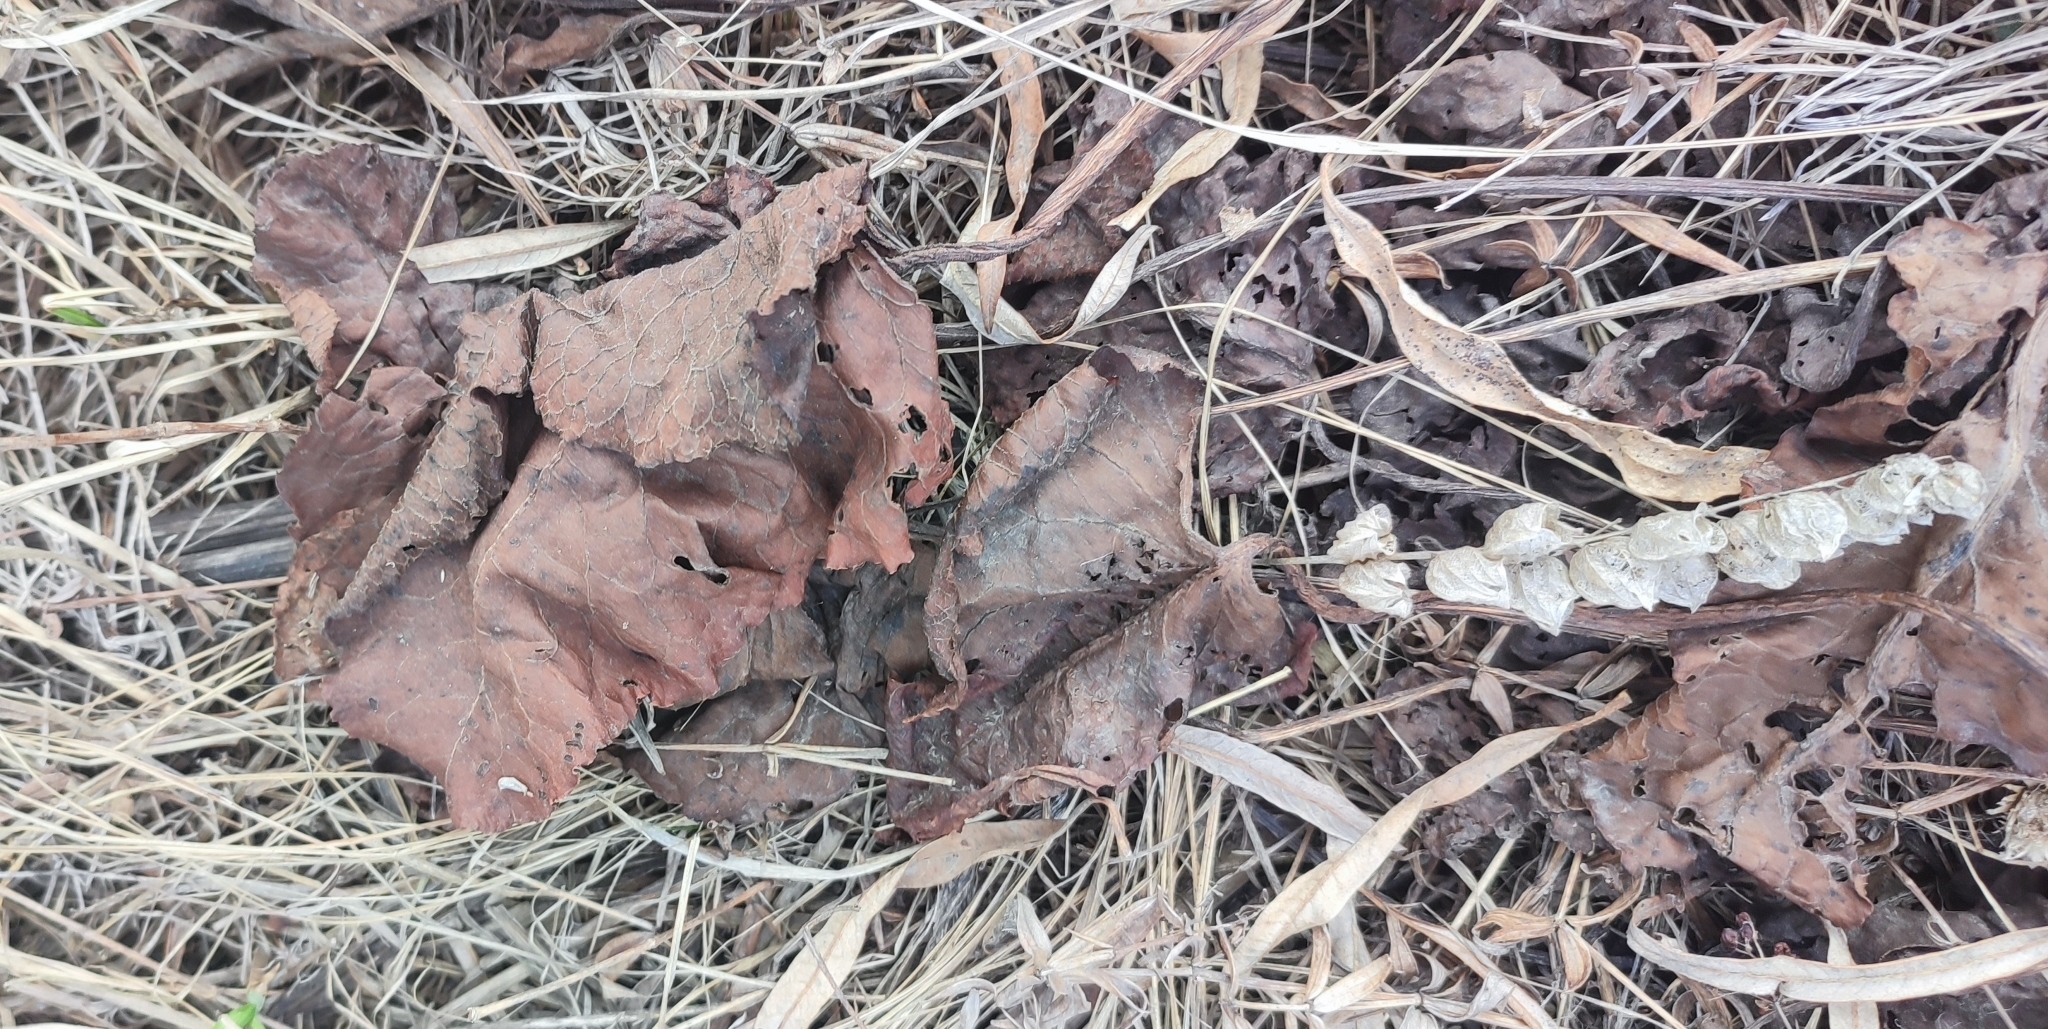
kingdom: Plantae
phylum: Tracheophyta
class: Magnoliopsida
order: Caryophyllales
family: Polygonaceae
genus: Rumex
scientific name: Rumex confertus
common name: Russian dock
